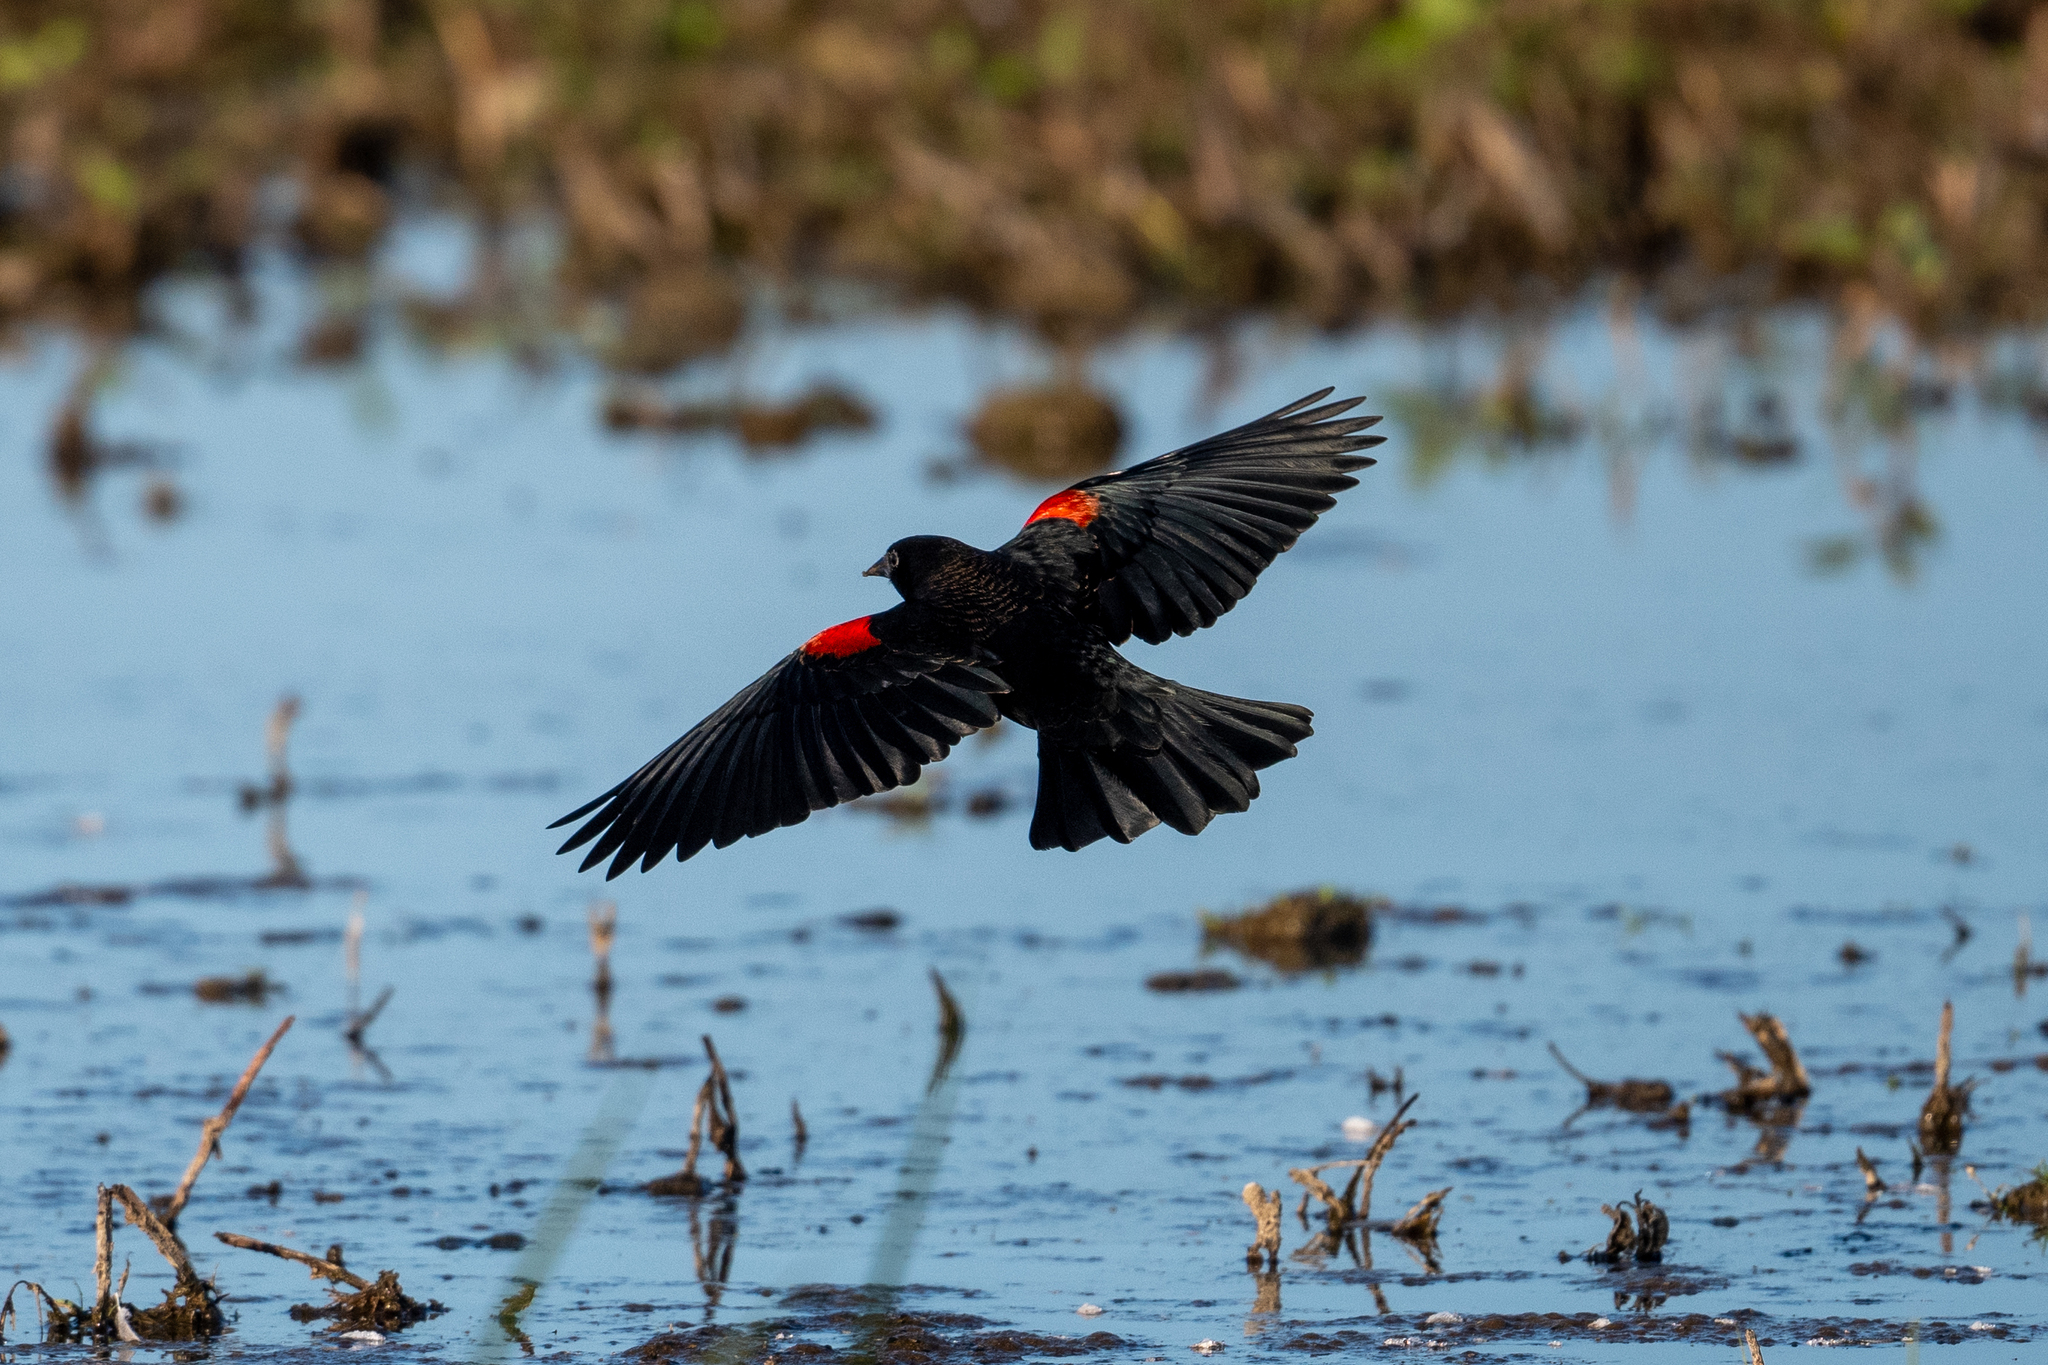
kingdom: Animalia
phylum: Chordata
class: Aves
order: Passeriformes
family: Icteridae
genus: Agelaius
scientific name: Agelaius phoeniceus
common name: Red-winged blackbird
